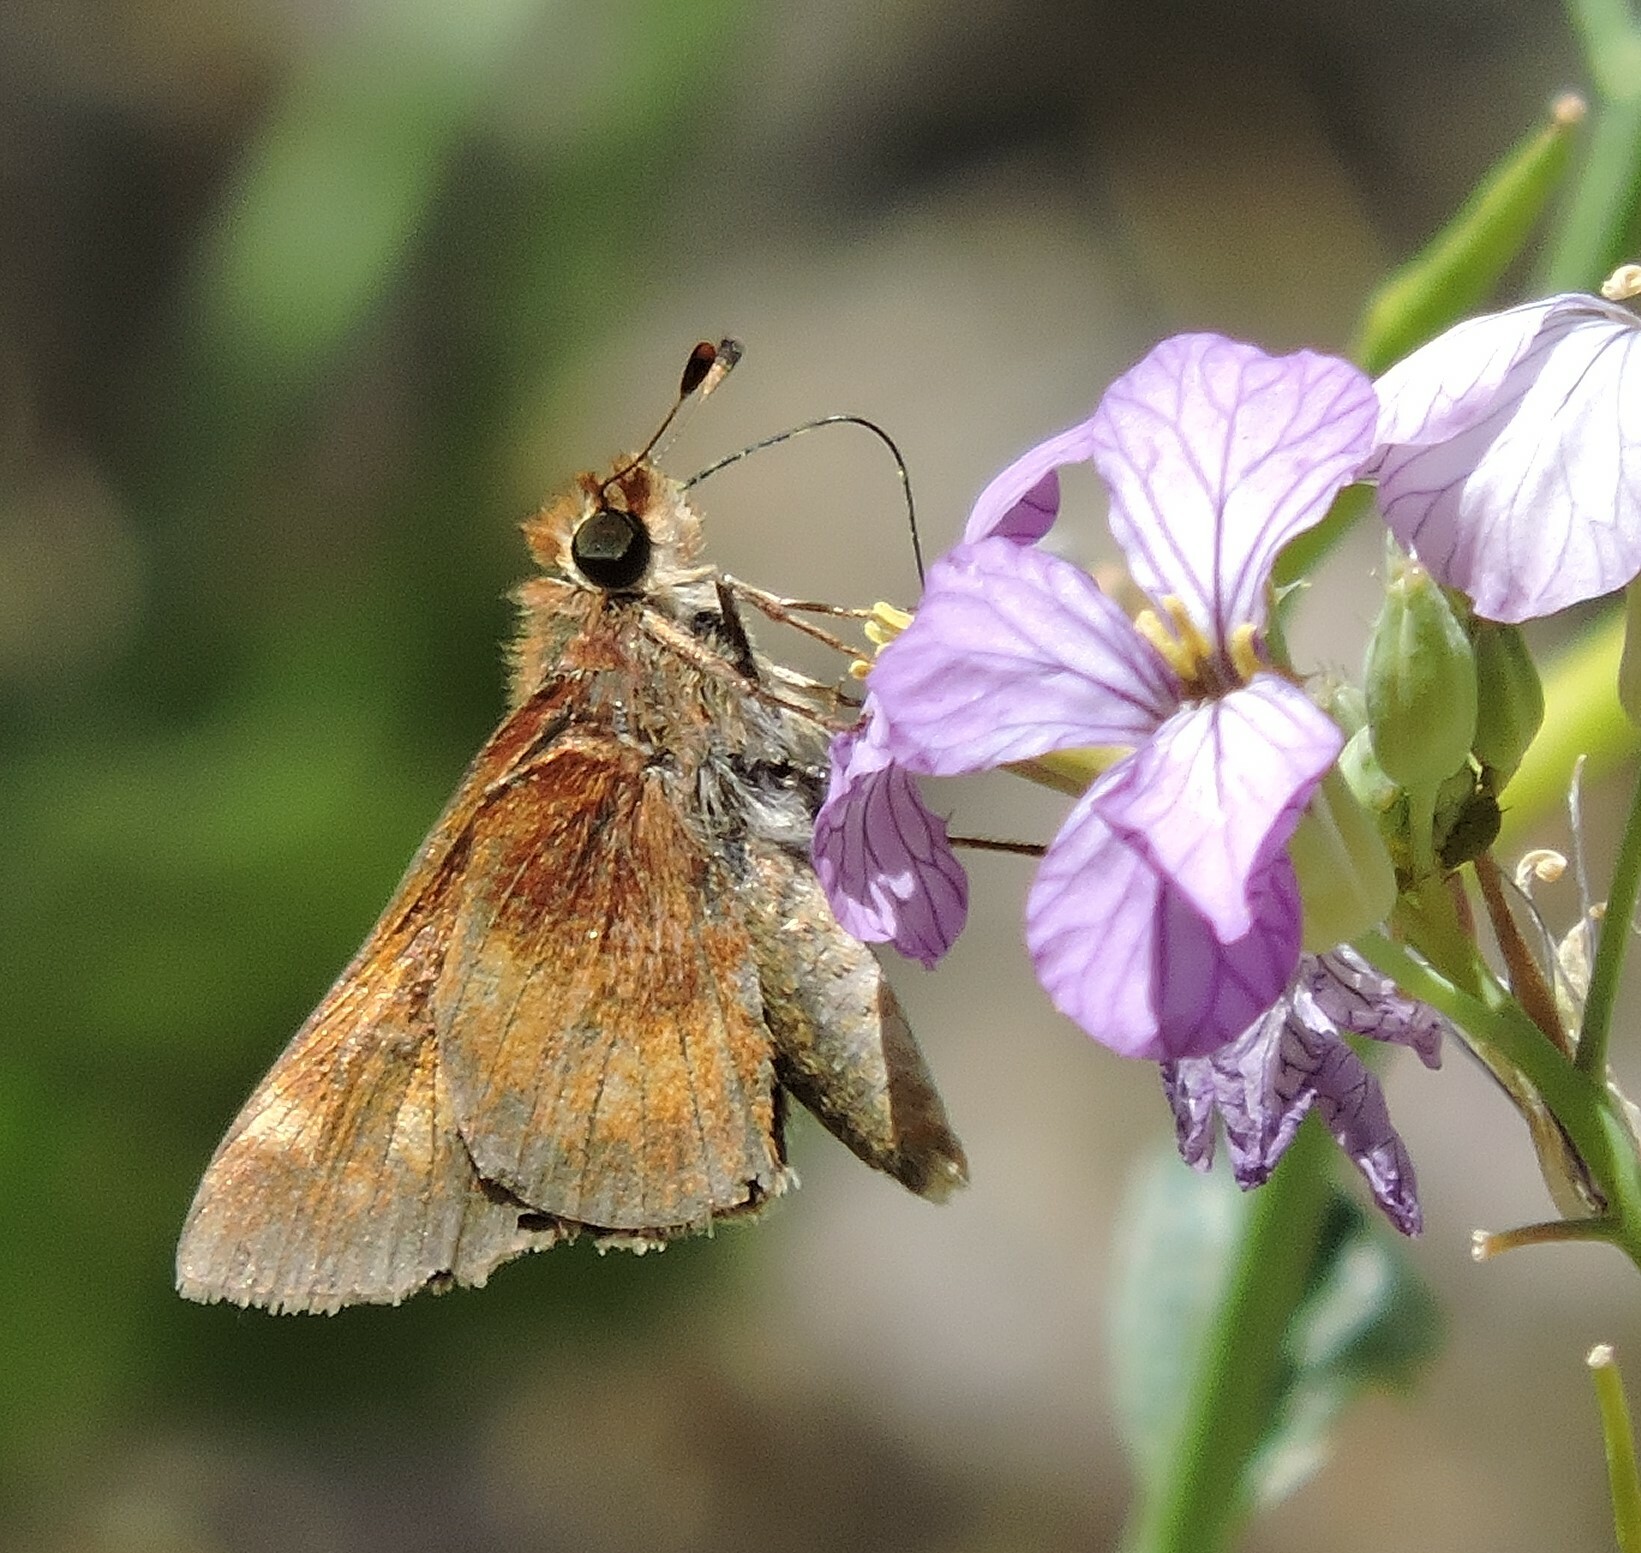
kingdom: Animalia
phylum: Arthropoda
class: Insecta
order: Lepidoptera
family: Hesperiidae
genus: Lon
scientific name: Lon melane
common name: Umber skipper
